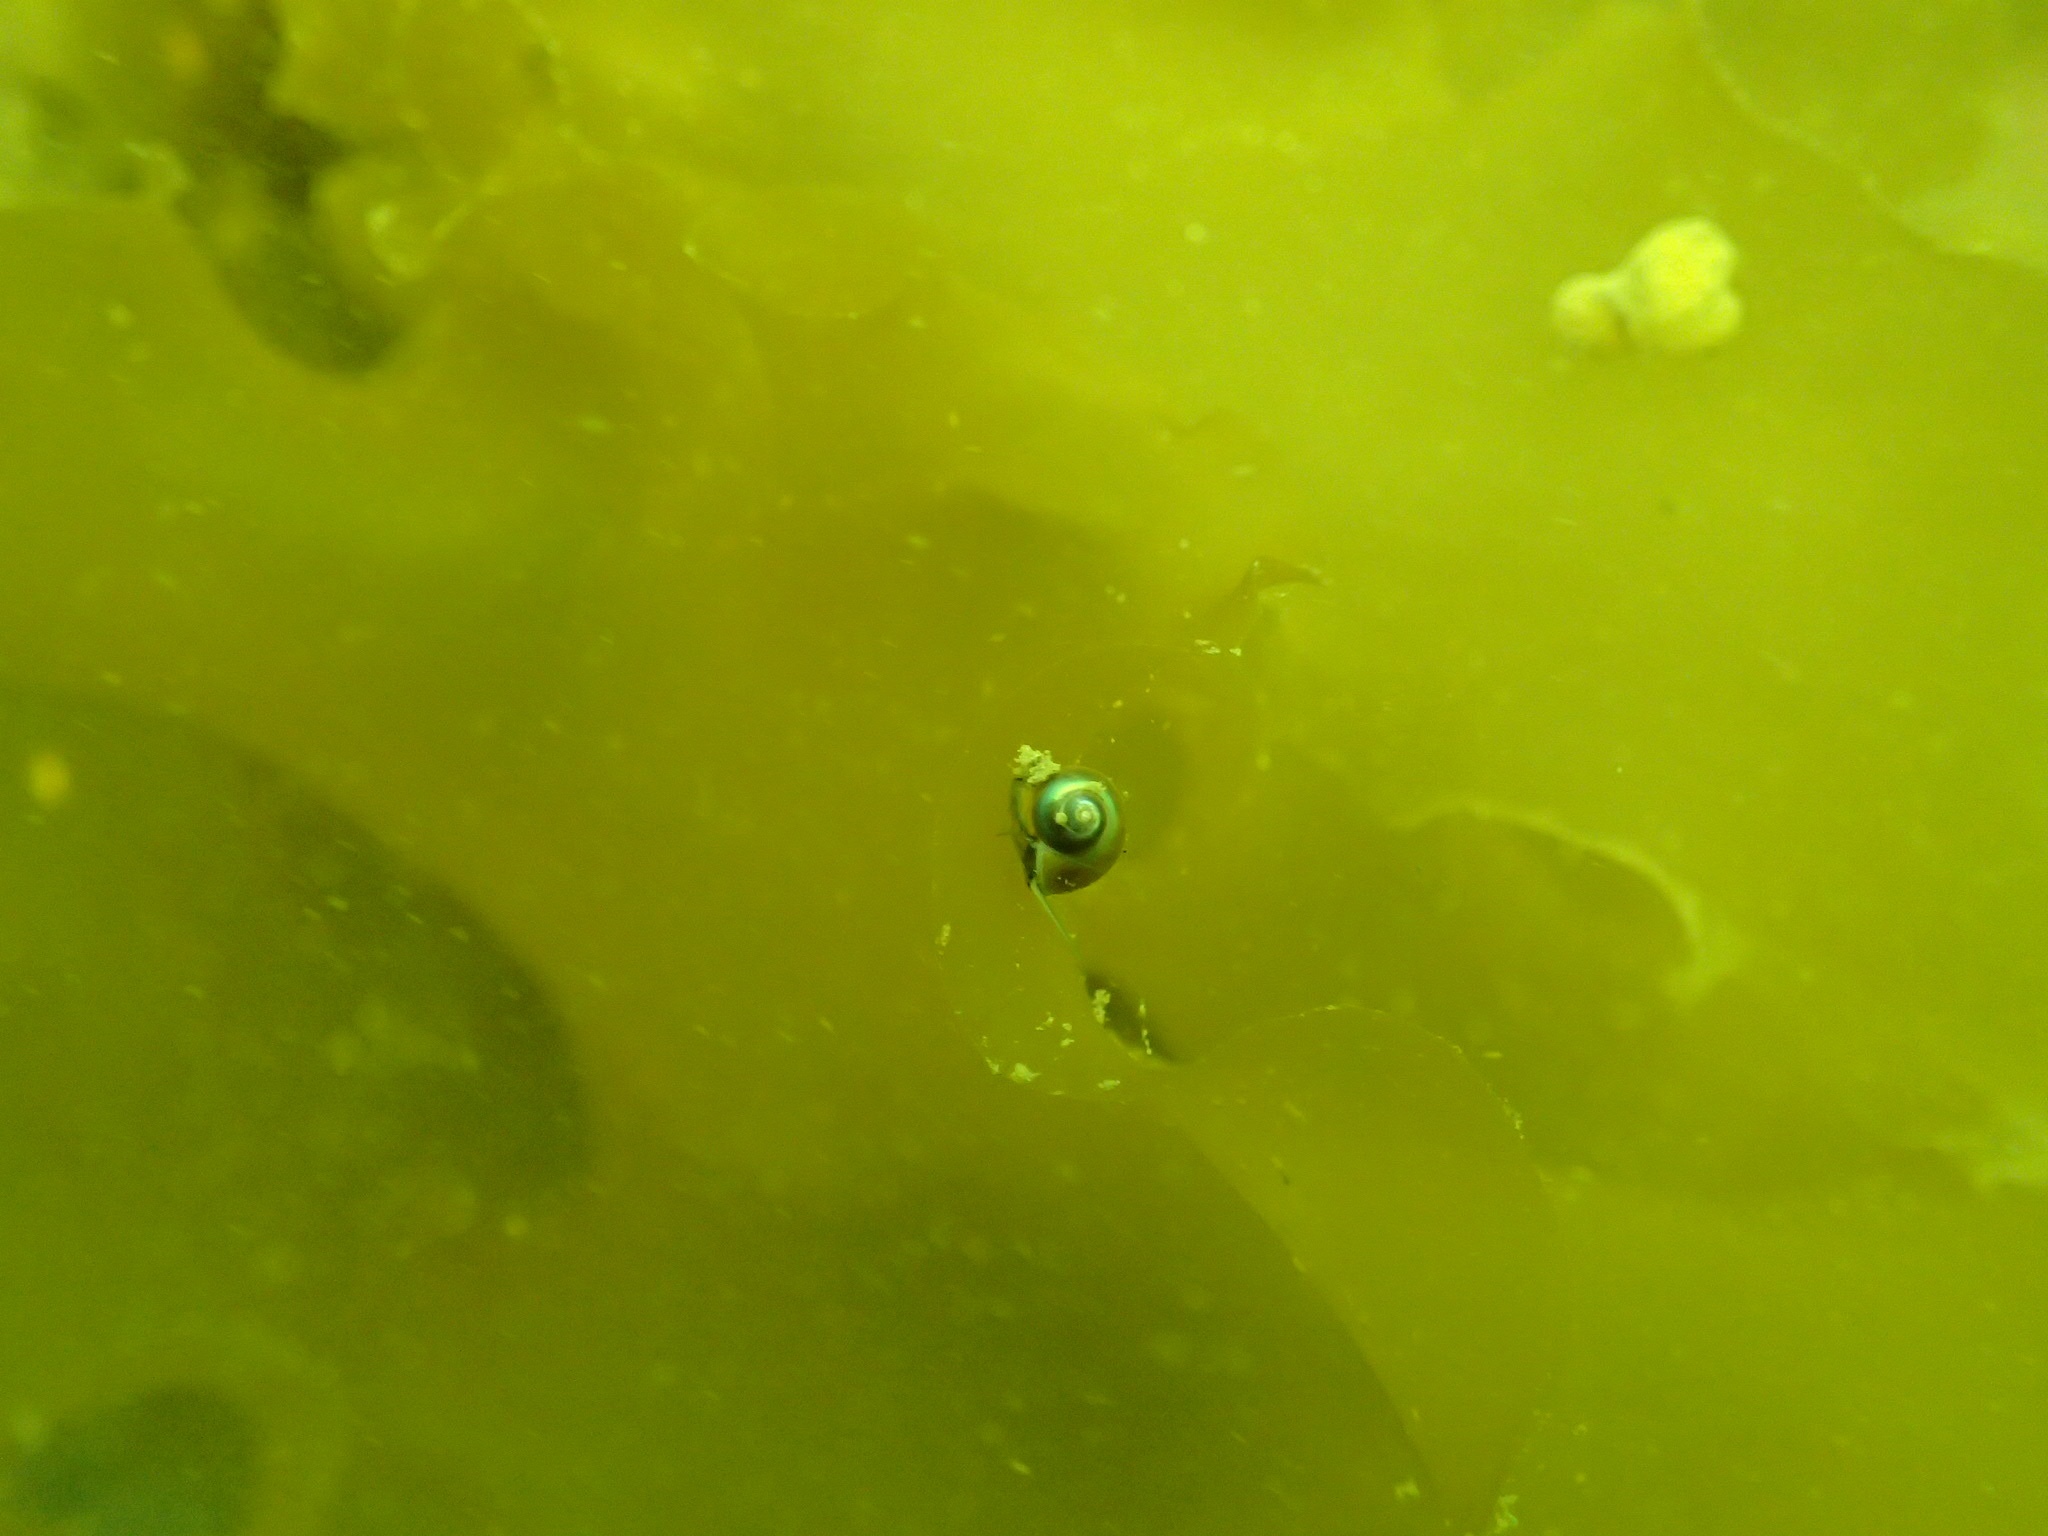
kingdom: Animalia
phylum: Mollusca
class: Gastropoda
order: Trochida
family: Margaritidae
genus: Margarites
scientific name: Margarites helicinus
